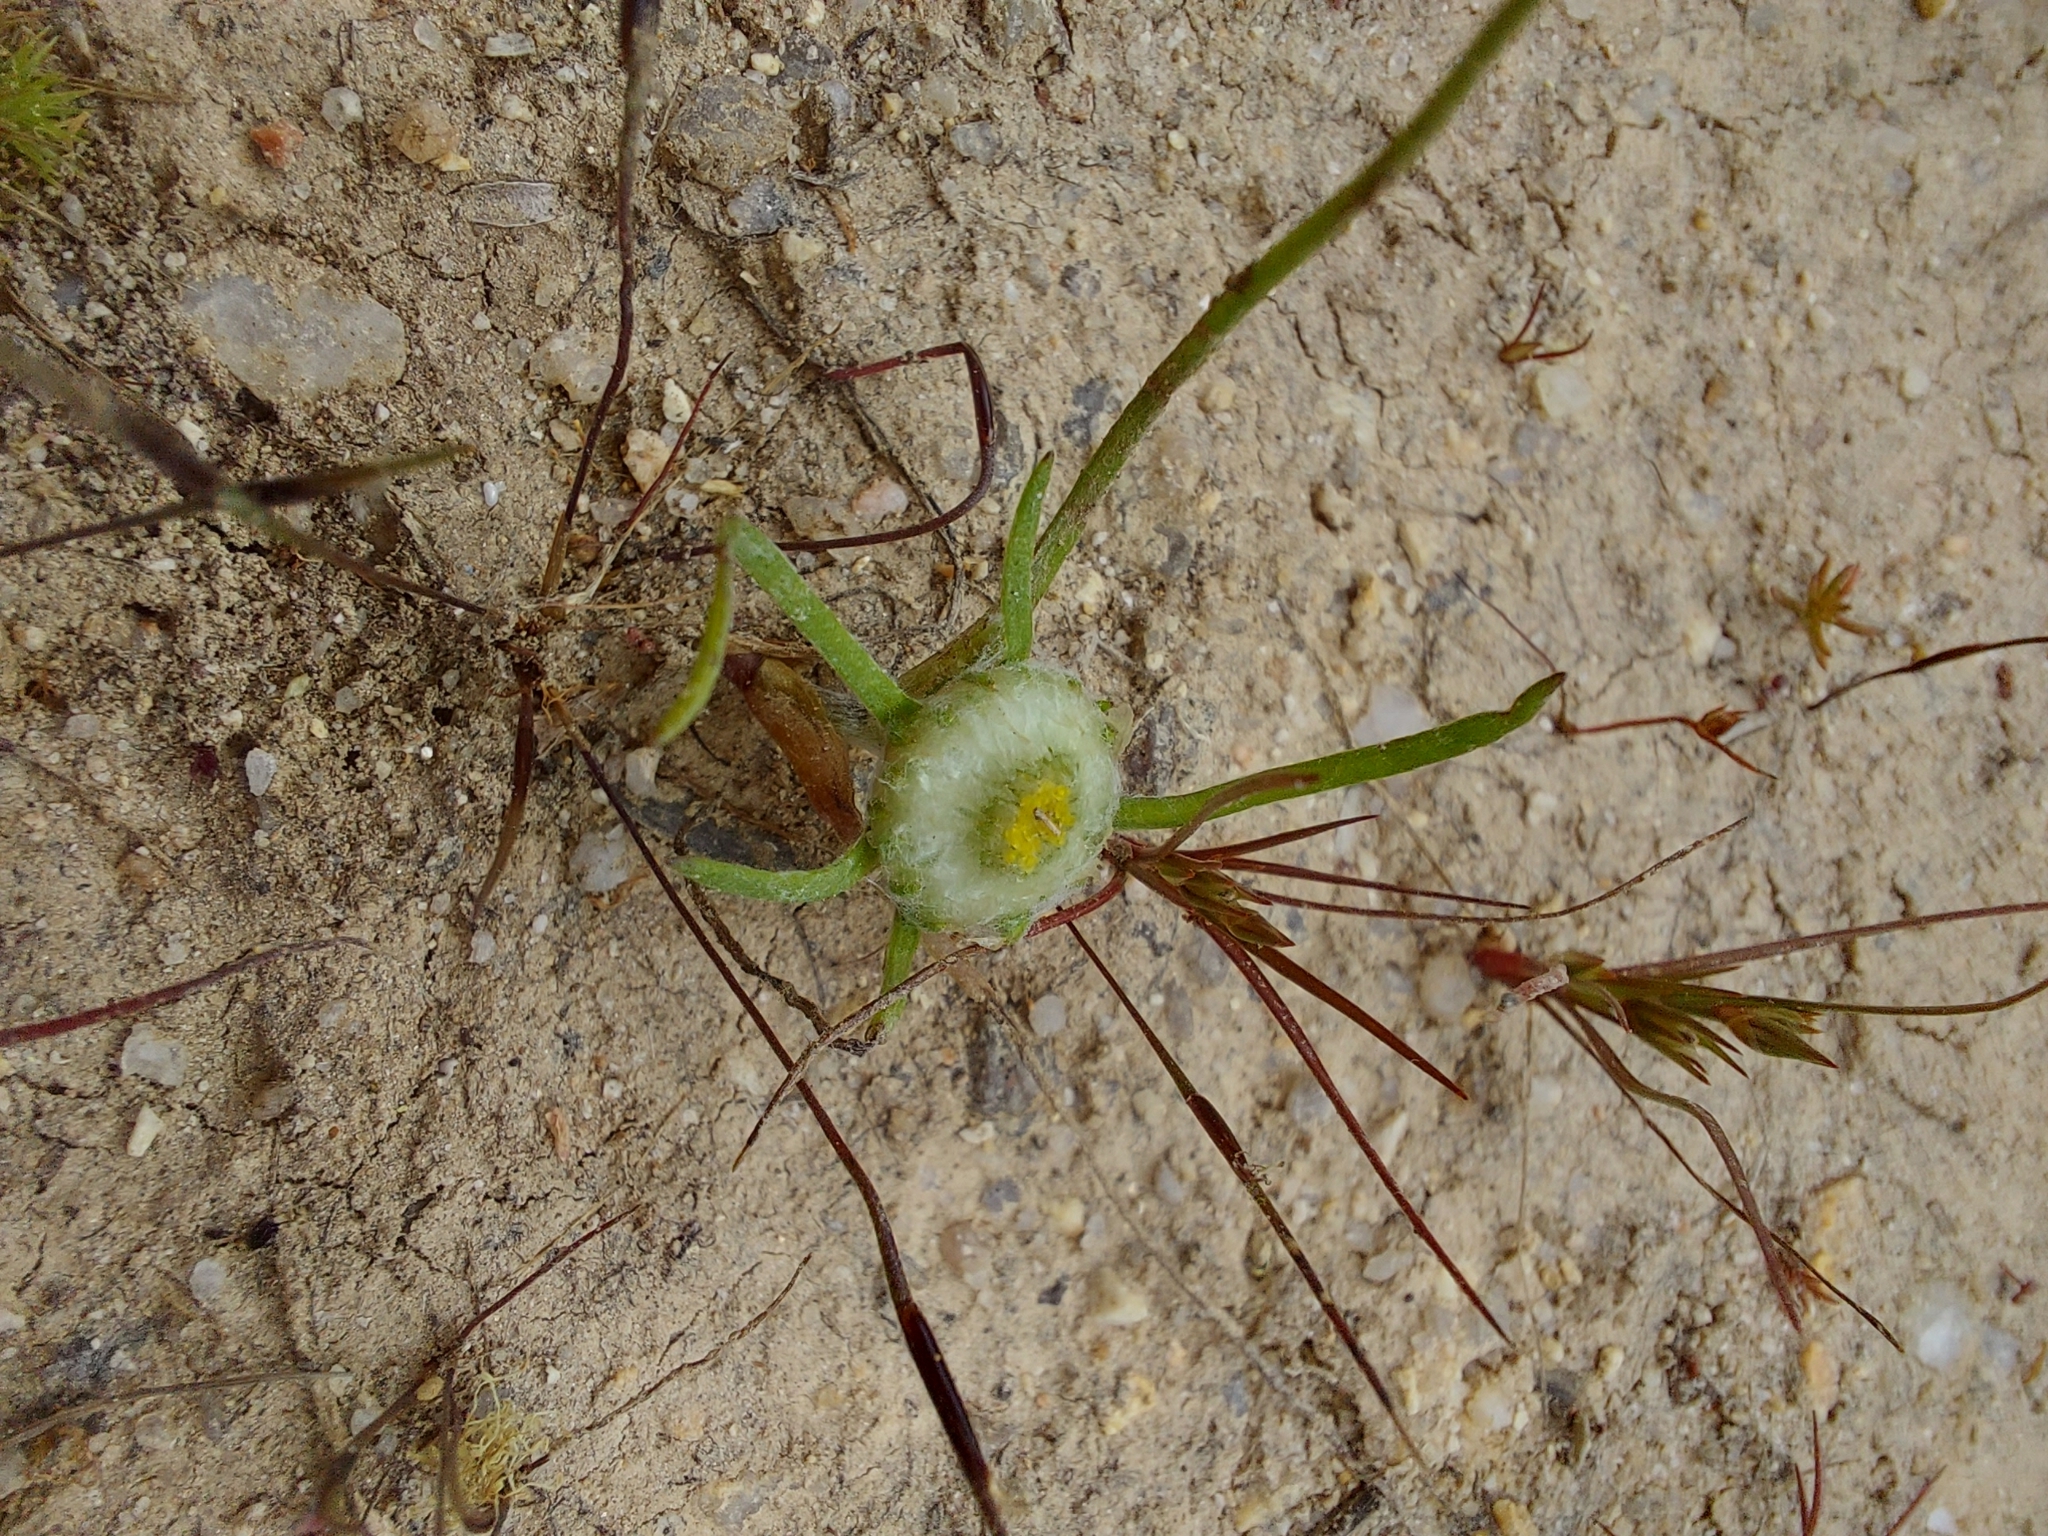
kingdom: Plantae
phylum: Tracheophyta
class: Magnoliopsida
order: Asterales
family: Asteraceae
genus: Myriocephalus
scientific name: Myriocephalus rhizocephalus
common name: Tufted woolly-heads
